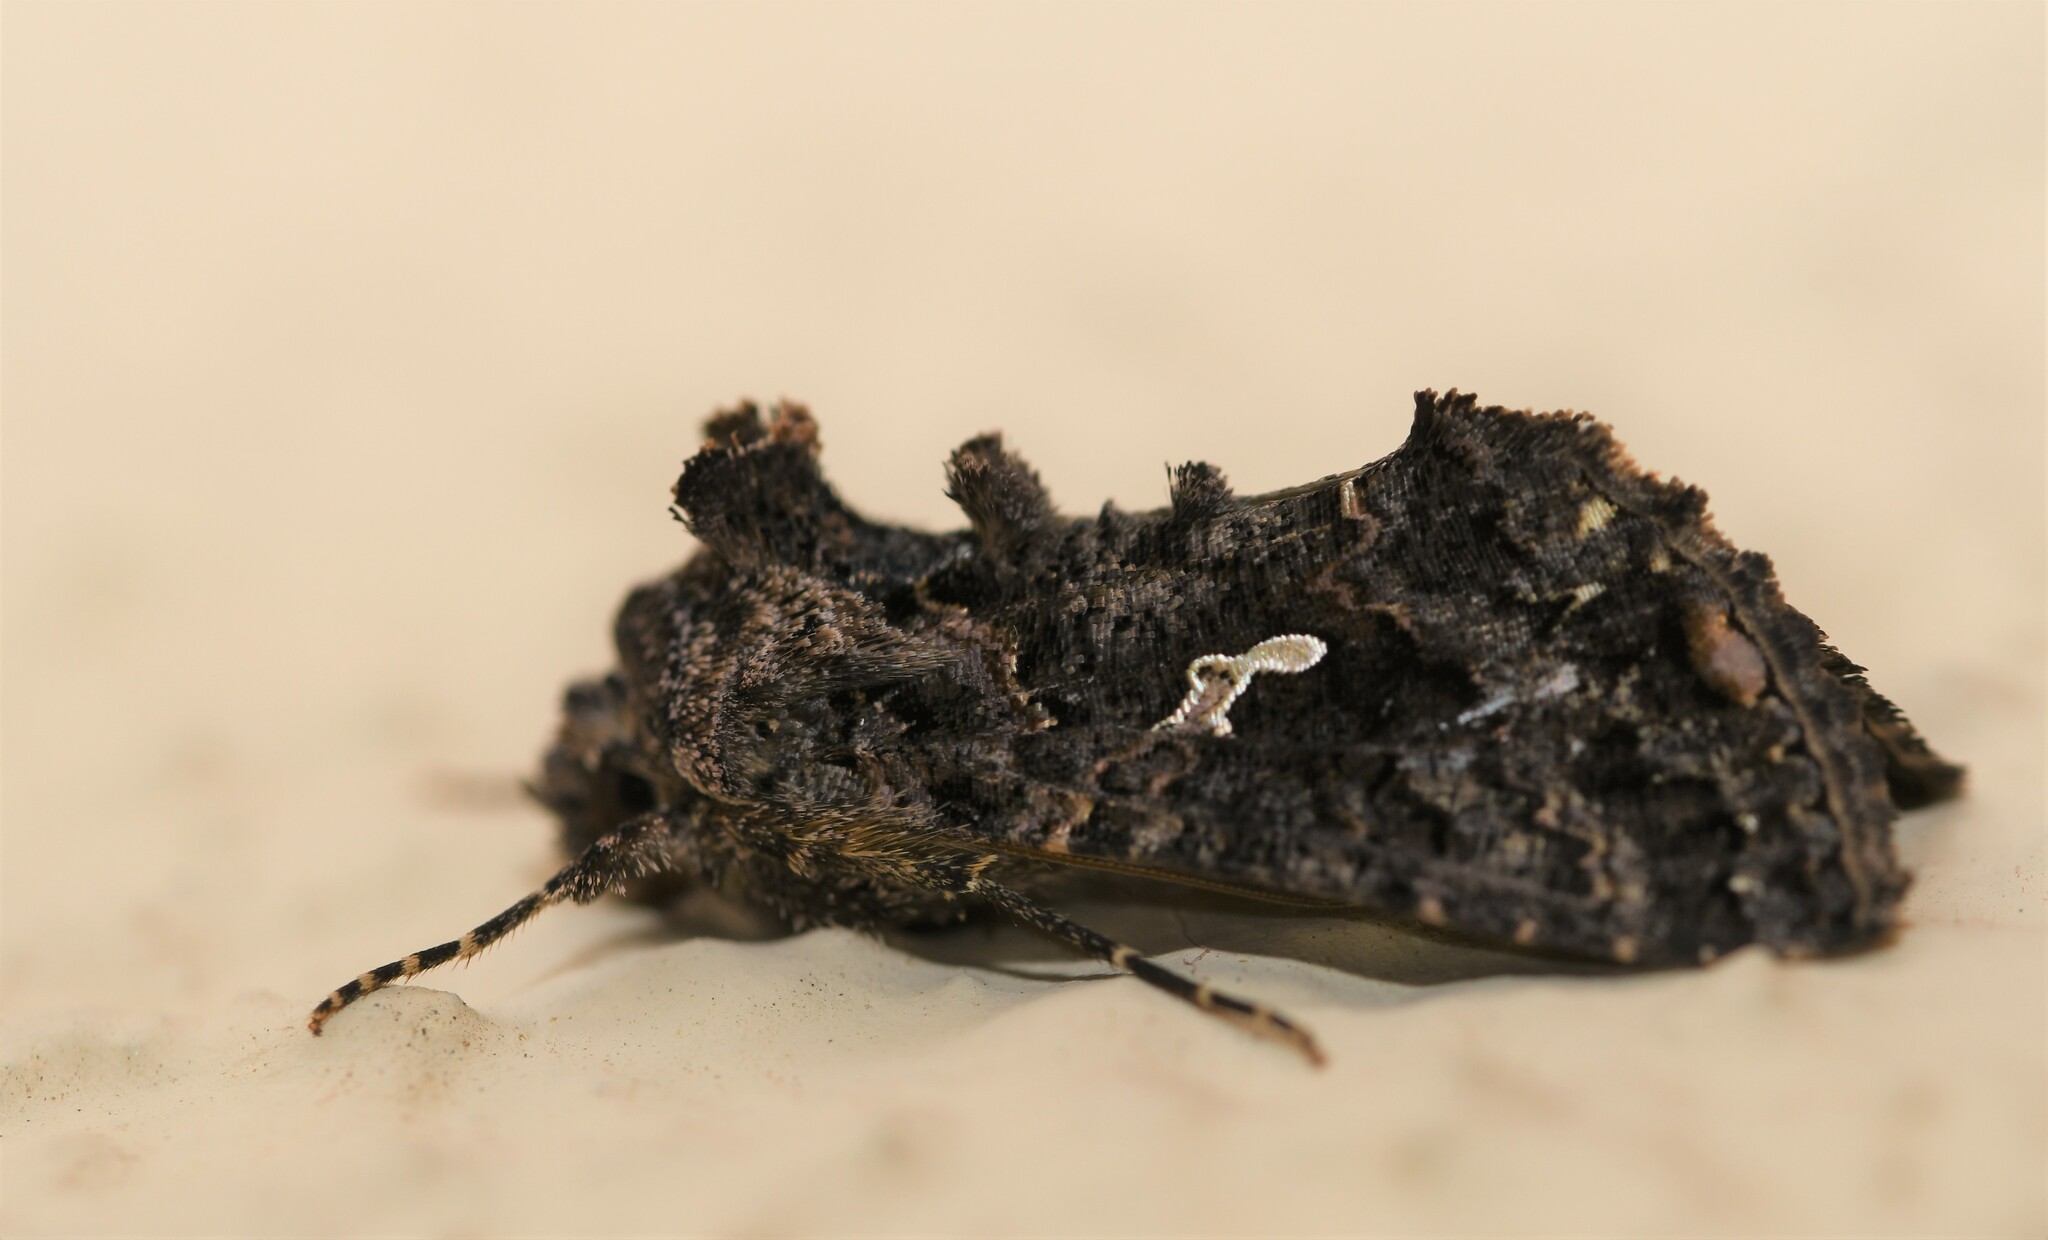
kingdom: Animalia
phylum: Arthropoda
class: Insecta
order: Lepidoptera
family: Noctuidae
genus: Ctenoplusia
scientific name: Ctenoplusia limbirena
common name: Scar bank gem
